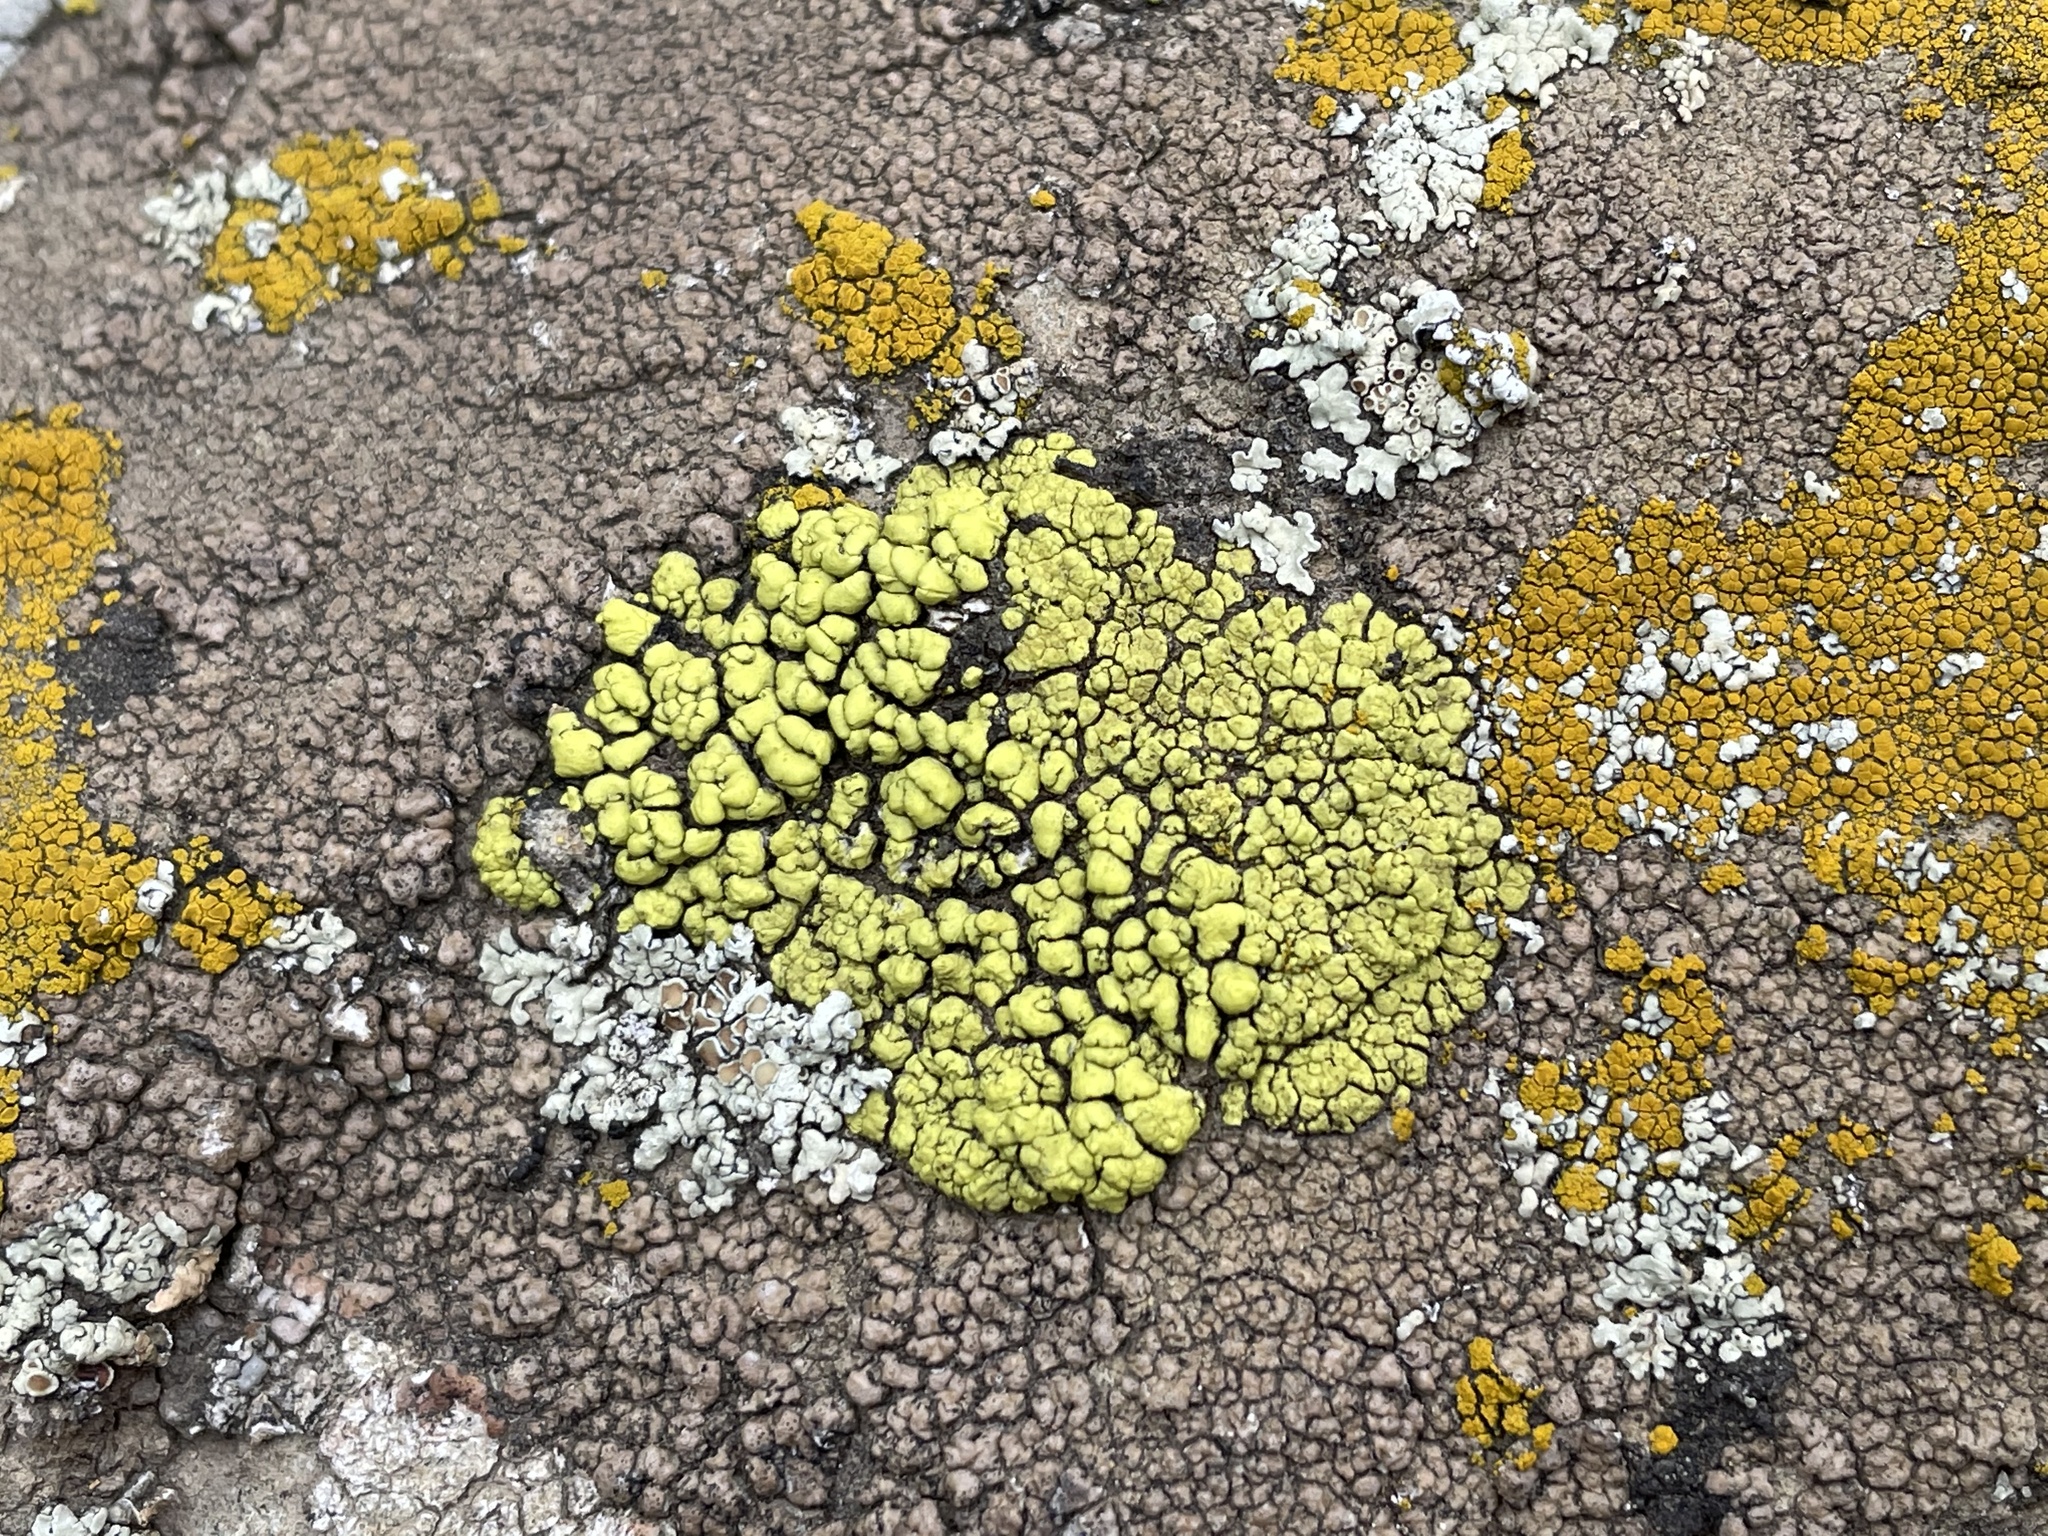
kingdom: Fungi
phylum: Ascomycota
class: Lecanoromycetes
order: Acarosporales
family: Acarosporaceae
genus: Acarospora
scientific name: Acarospora socialis
